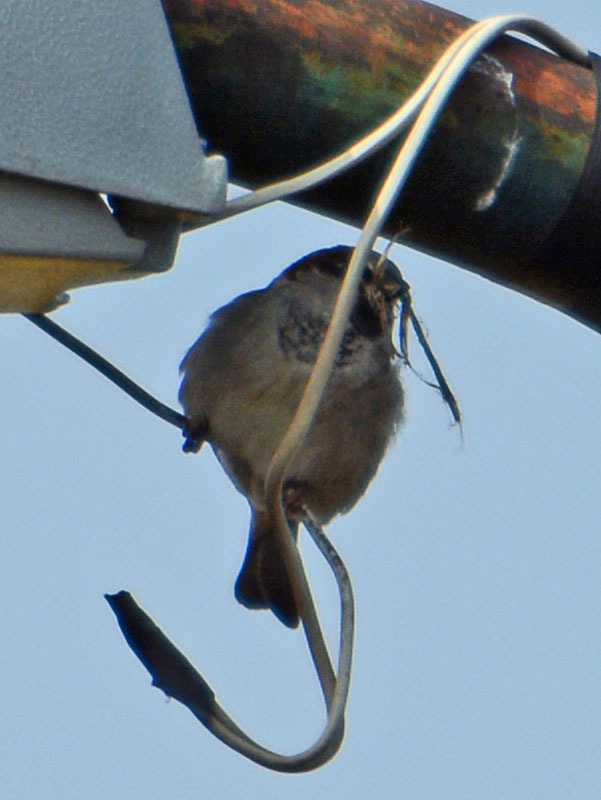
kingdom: Animalia
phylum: Chordata
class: Aves
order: Passeriformes
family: Passeridae
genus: Passer
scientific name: Passer domesticus
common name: House sparrow
